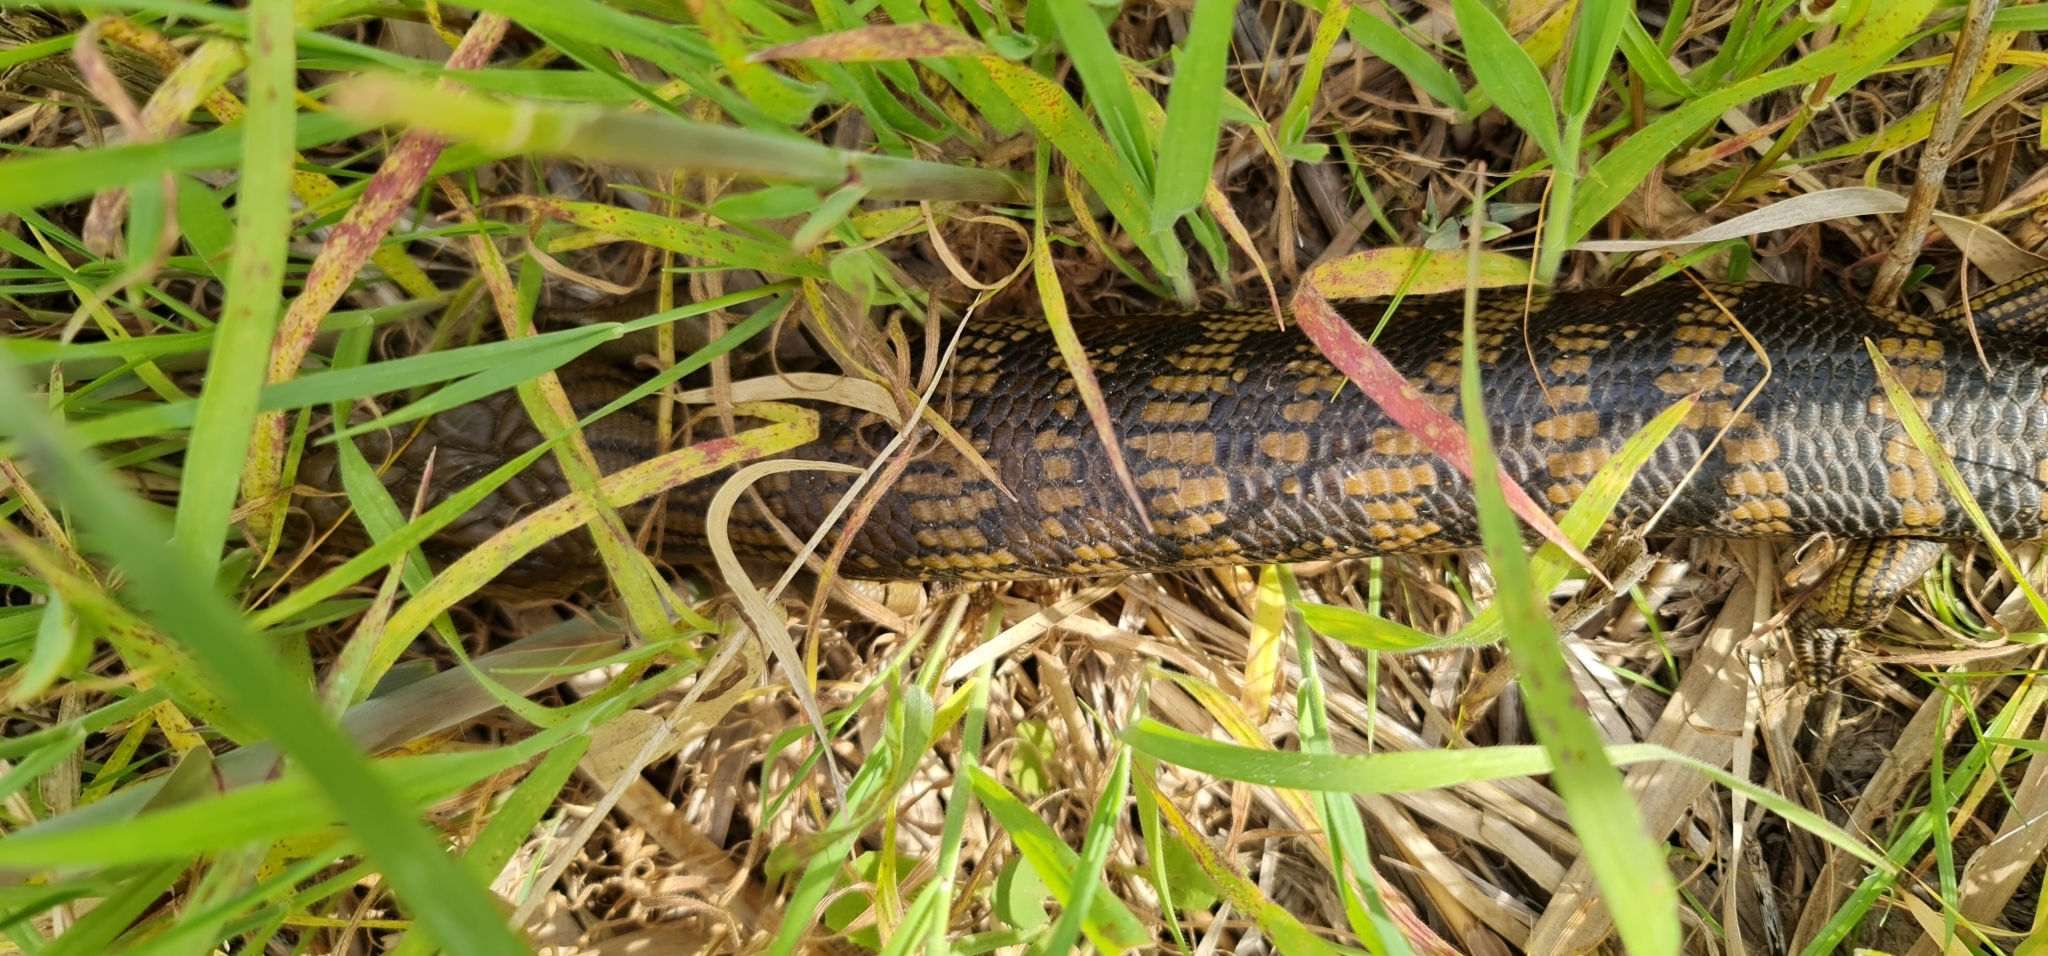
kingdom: Animalia
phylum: Chordata
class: Squamata
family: Scincidae
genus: Tiliqua
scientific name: Tiliqua scincoides
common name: Common bluetongue
